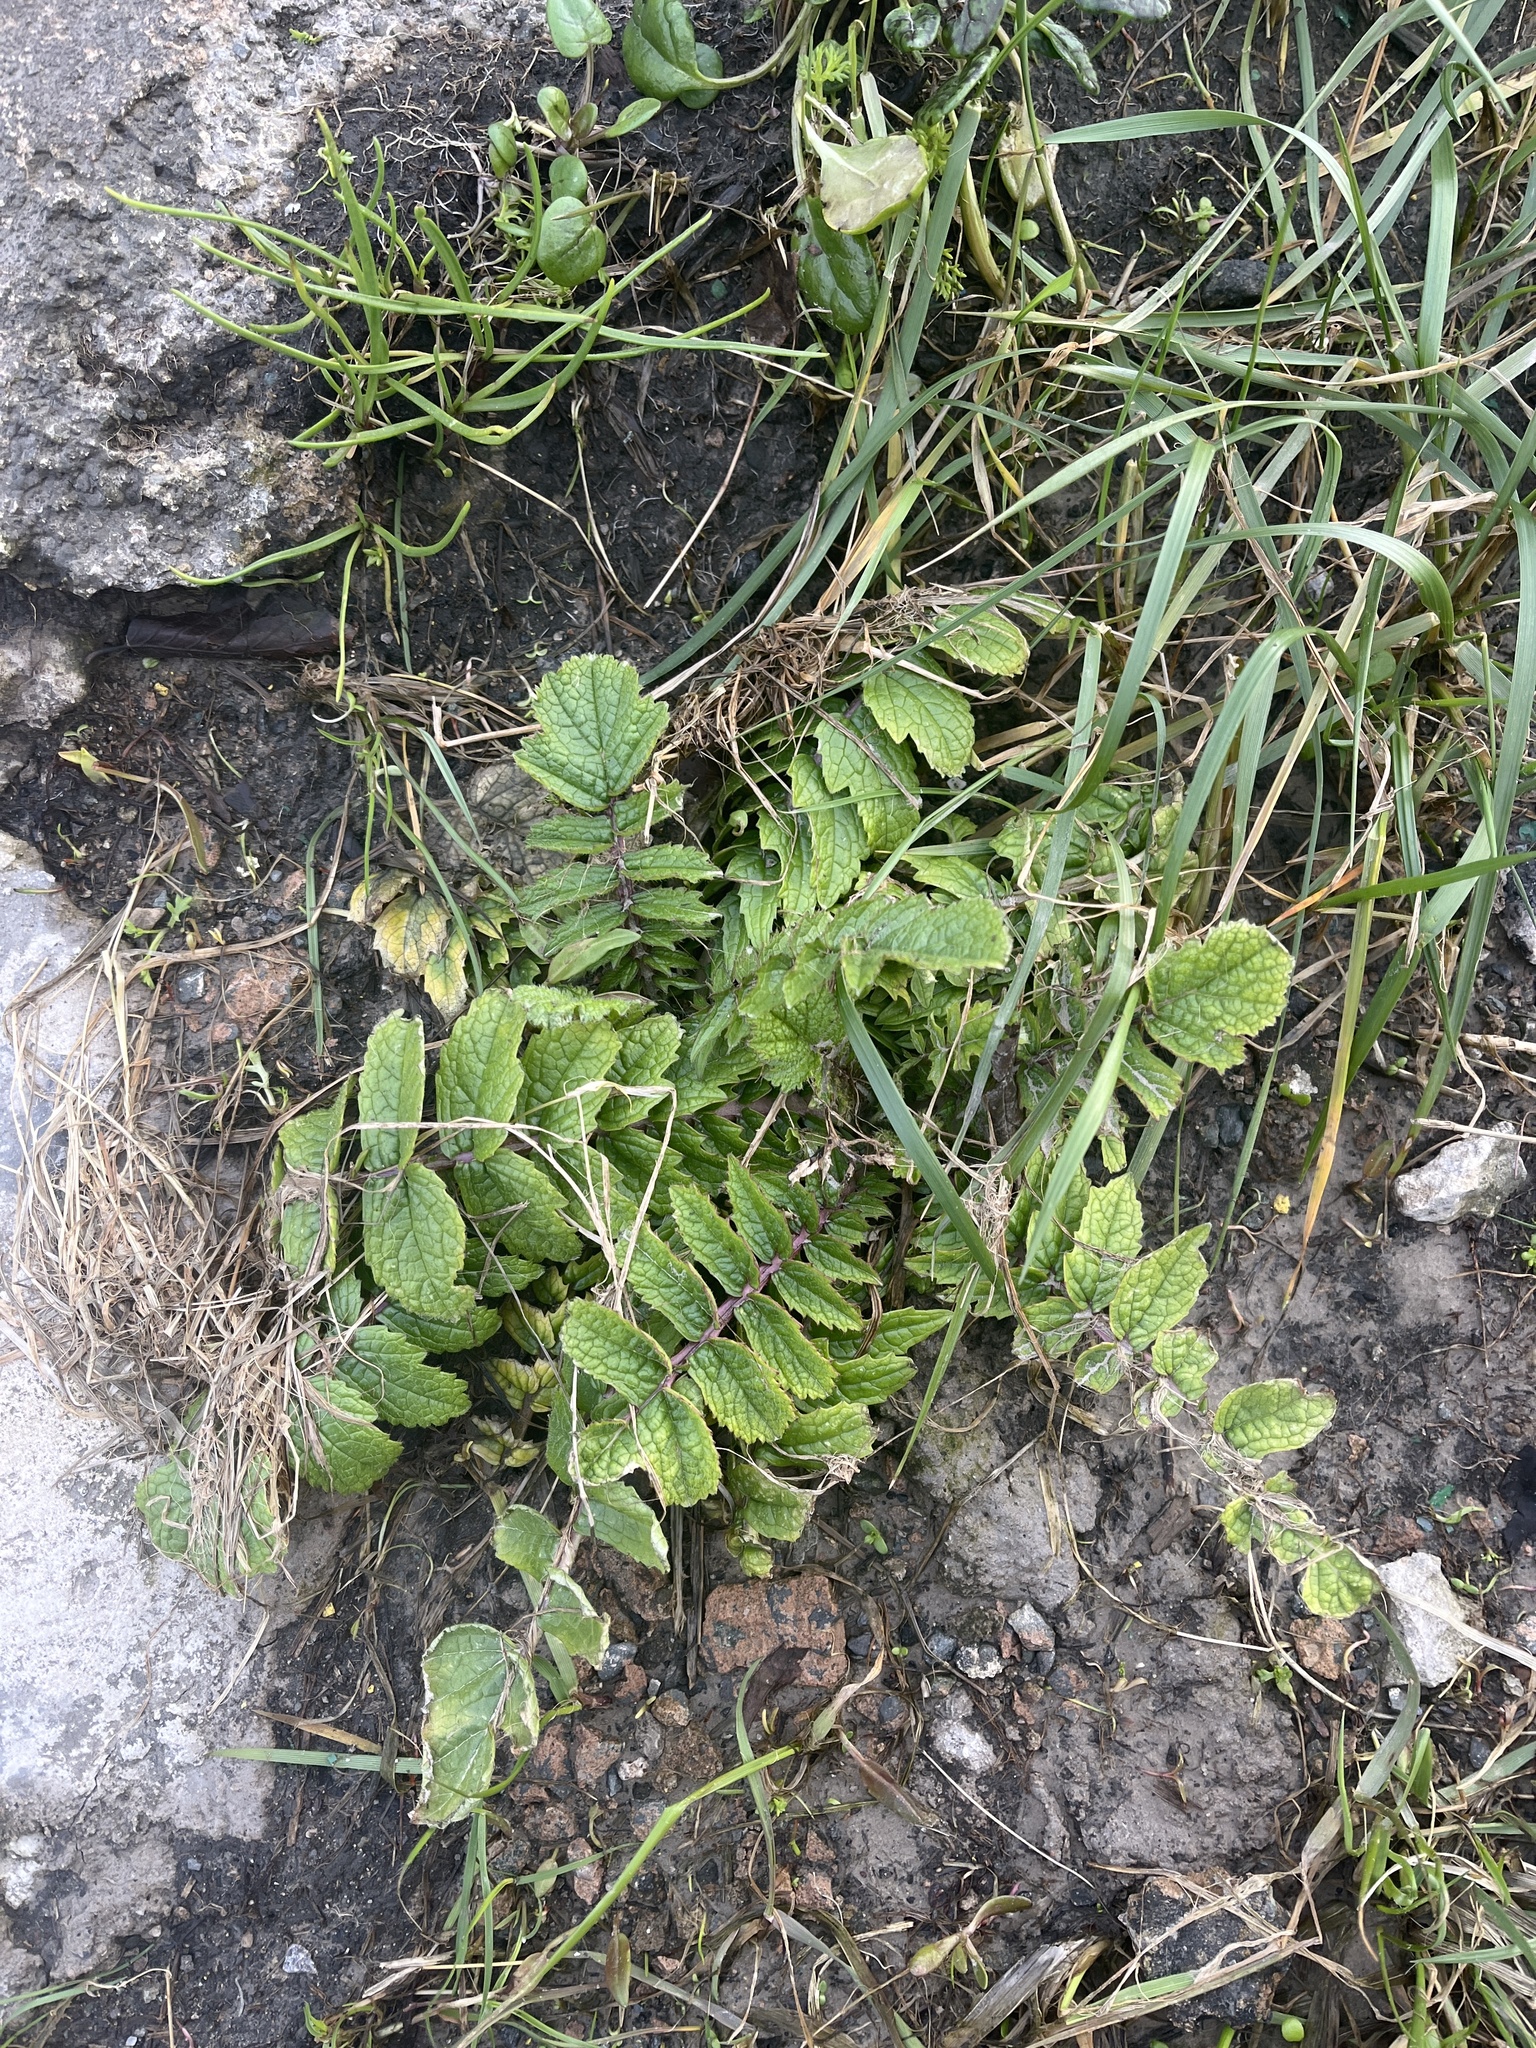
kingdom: Plantae
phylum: Tracheophyta
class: Magnoliopsida
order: Brassicales
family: Brassicaceae
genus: Raphanus
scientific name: Raphanus raphanistrum
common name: Wild radish
